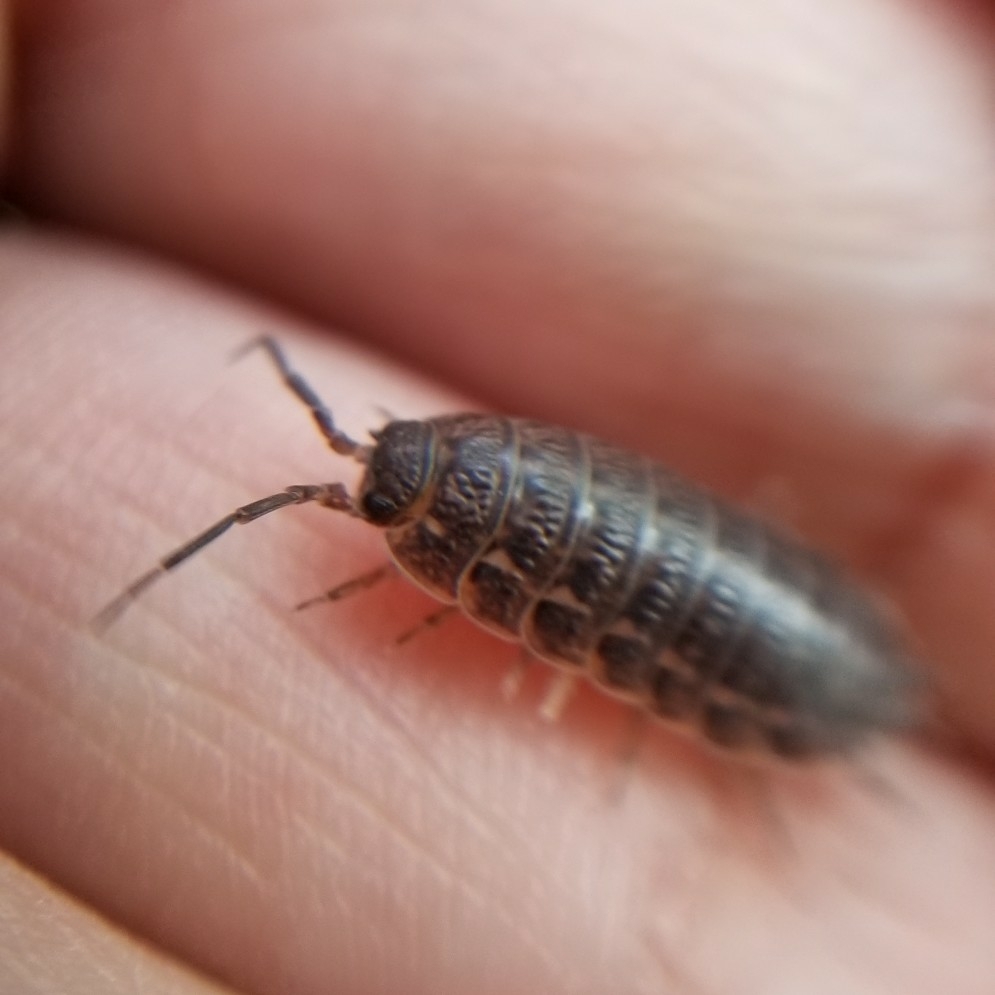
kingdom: Animalia
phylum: Arthropoda
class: Malacostraca
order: Isopoda
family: Trachelipodidae
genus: Trachelipus
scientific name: Trachelipus rathkii
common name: Isopod
